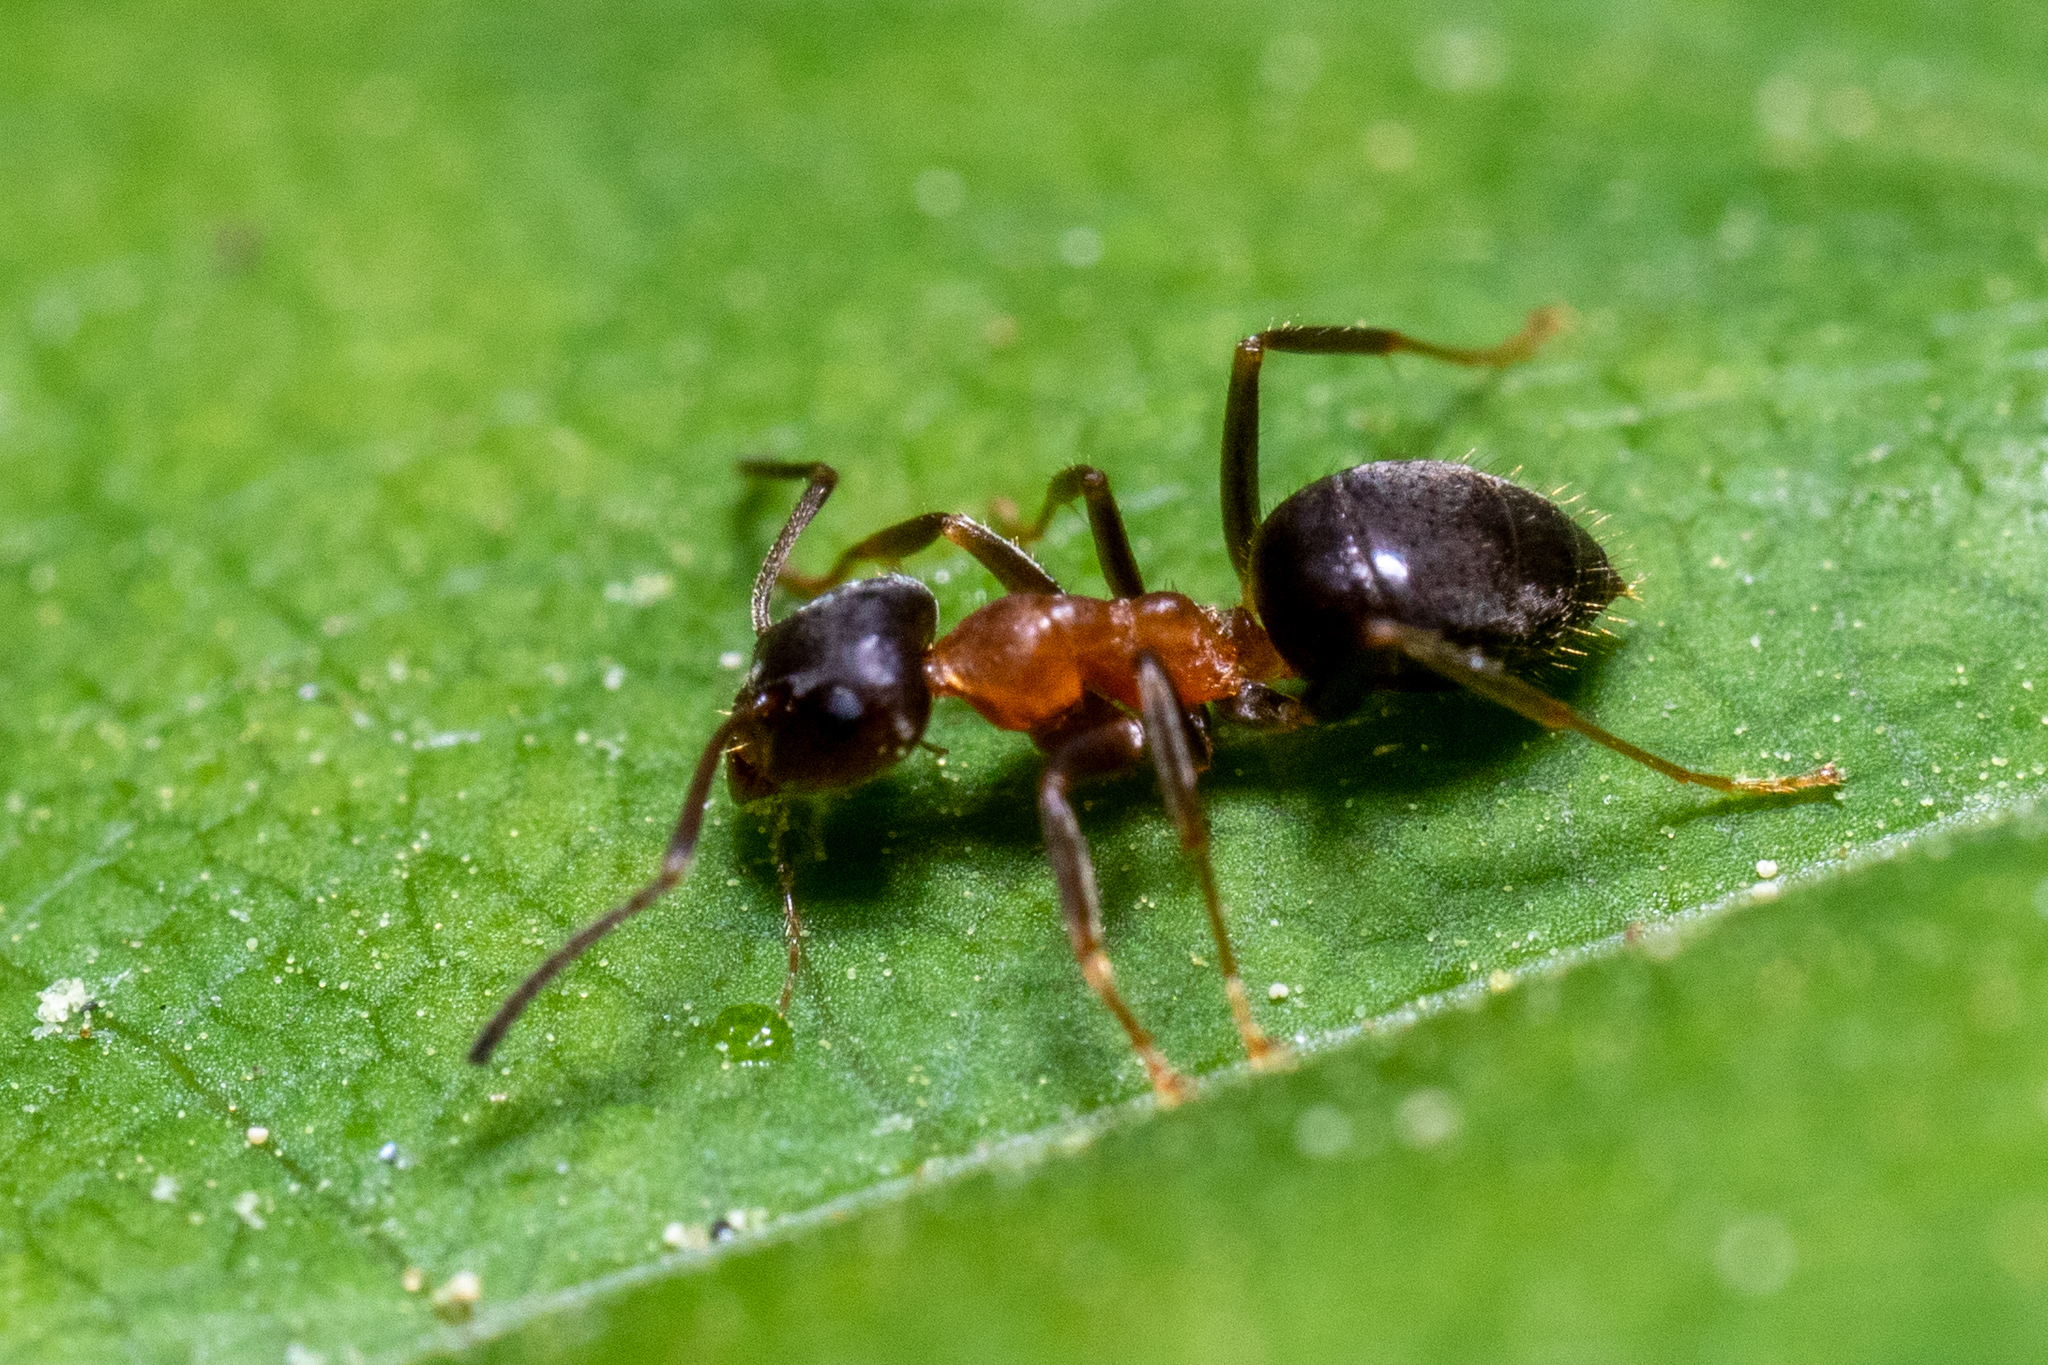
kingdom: Animalia
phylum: Arthropoda
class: Insecta
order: Hymenoptera
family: Formicidae
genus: Lasius
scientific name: Lasius emarginatus
